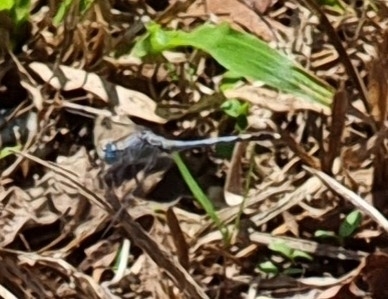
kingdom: Animalia
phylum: Arthropoda
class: Insecta
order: Odonata
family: Libellulidae
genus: Diplacodes
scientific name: Diplacodes trivialis
